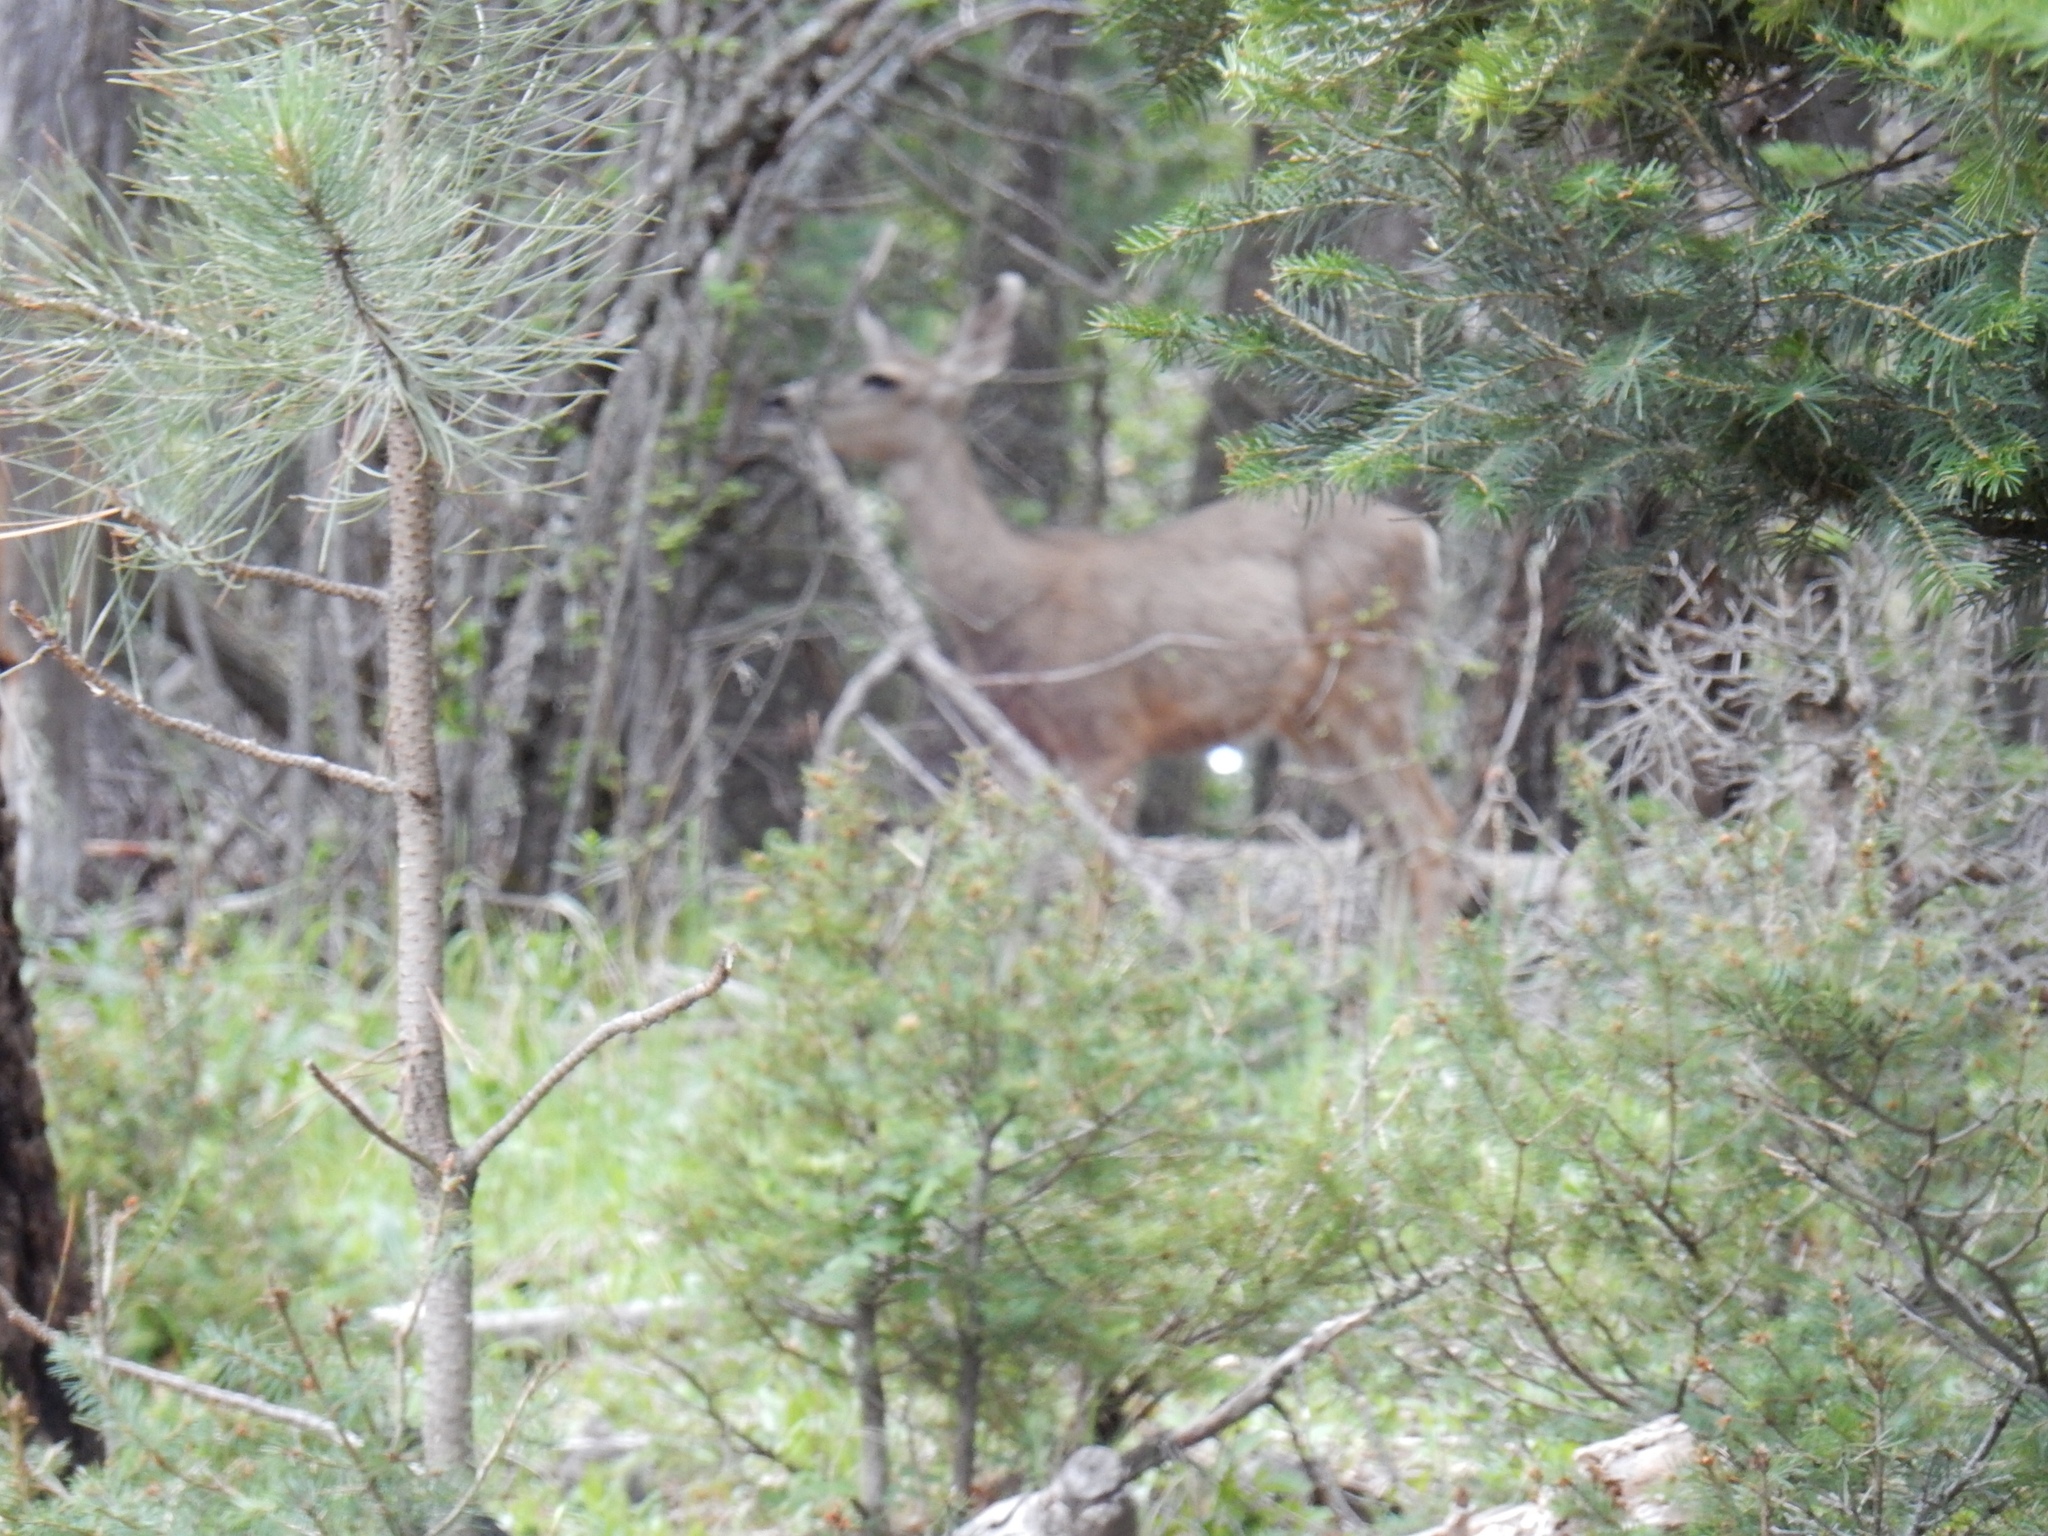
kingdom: Animalia
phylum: Chordata
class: Mammalia
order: Artiodactyla
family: Cervidae
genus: Odocoileus
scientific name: Odocoileus hemionus
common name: Mule deer
